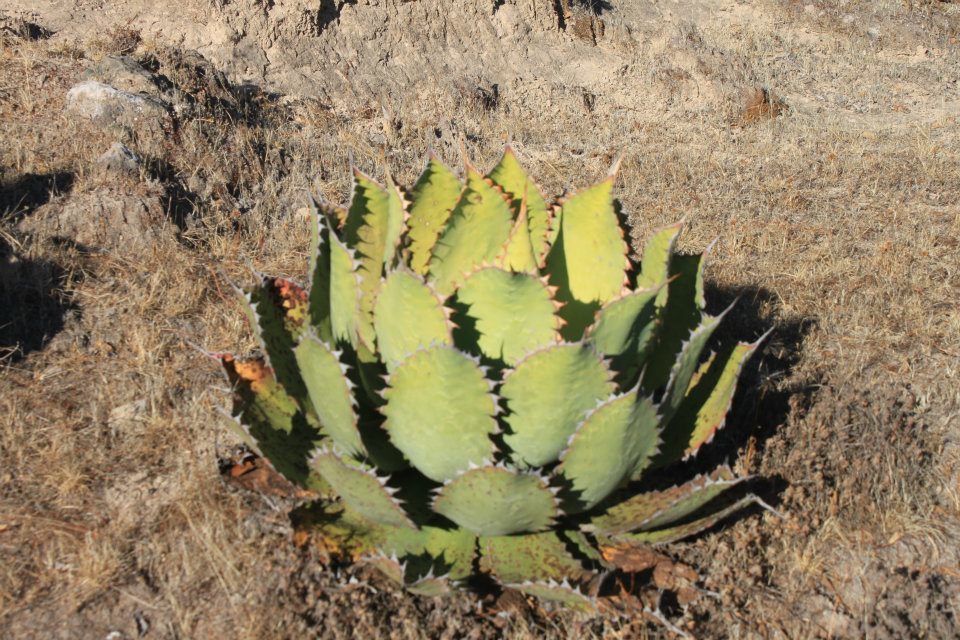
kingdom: Plantae
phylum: Tracheophyta
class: Liliopsida
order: Asparagales
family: Asparagaceae
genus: Agave
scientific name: Agave potatorum
